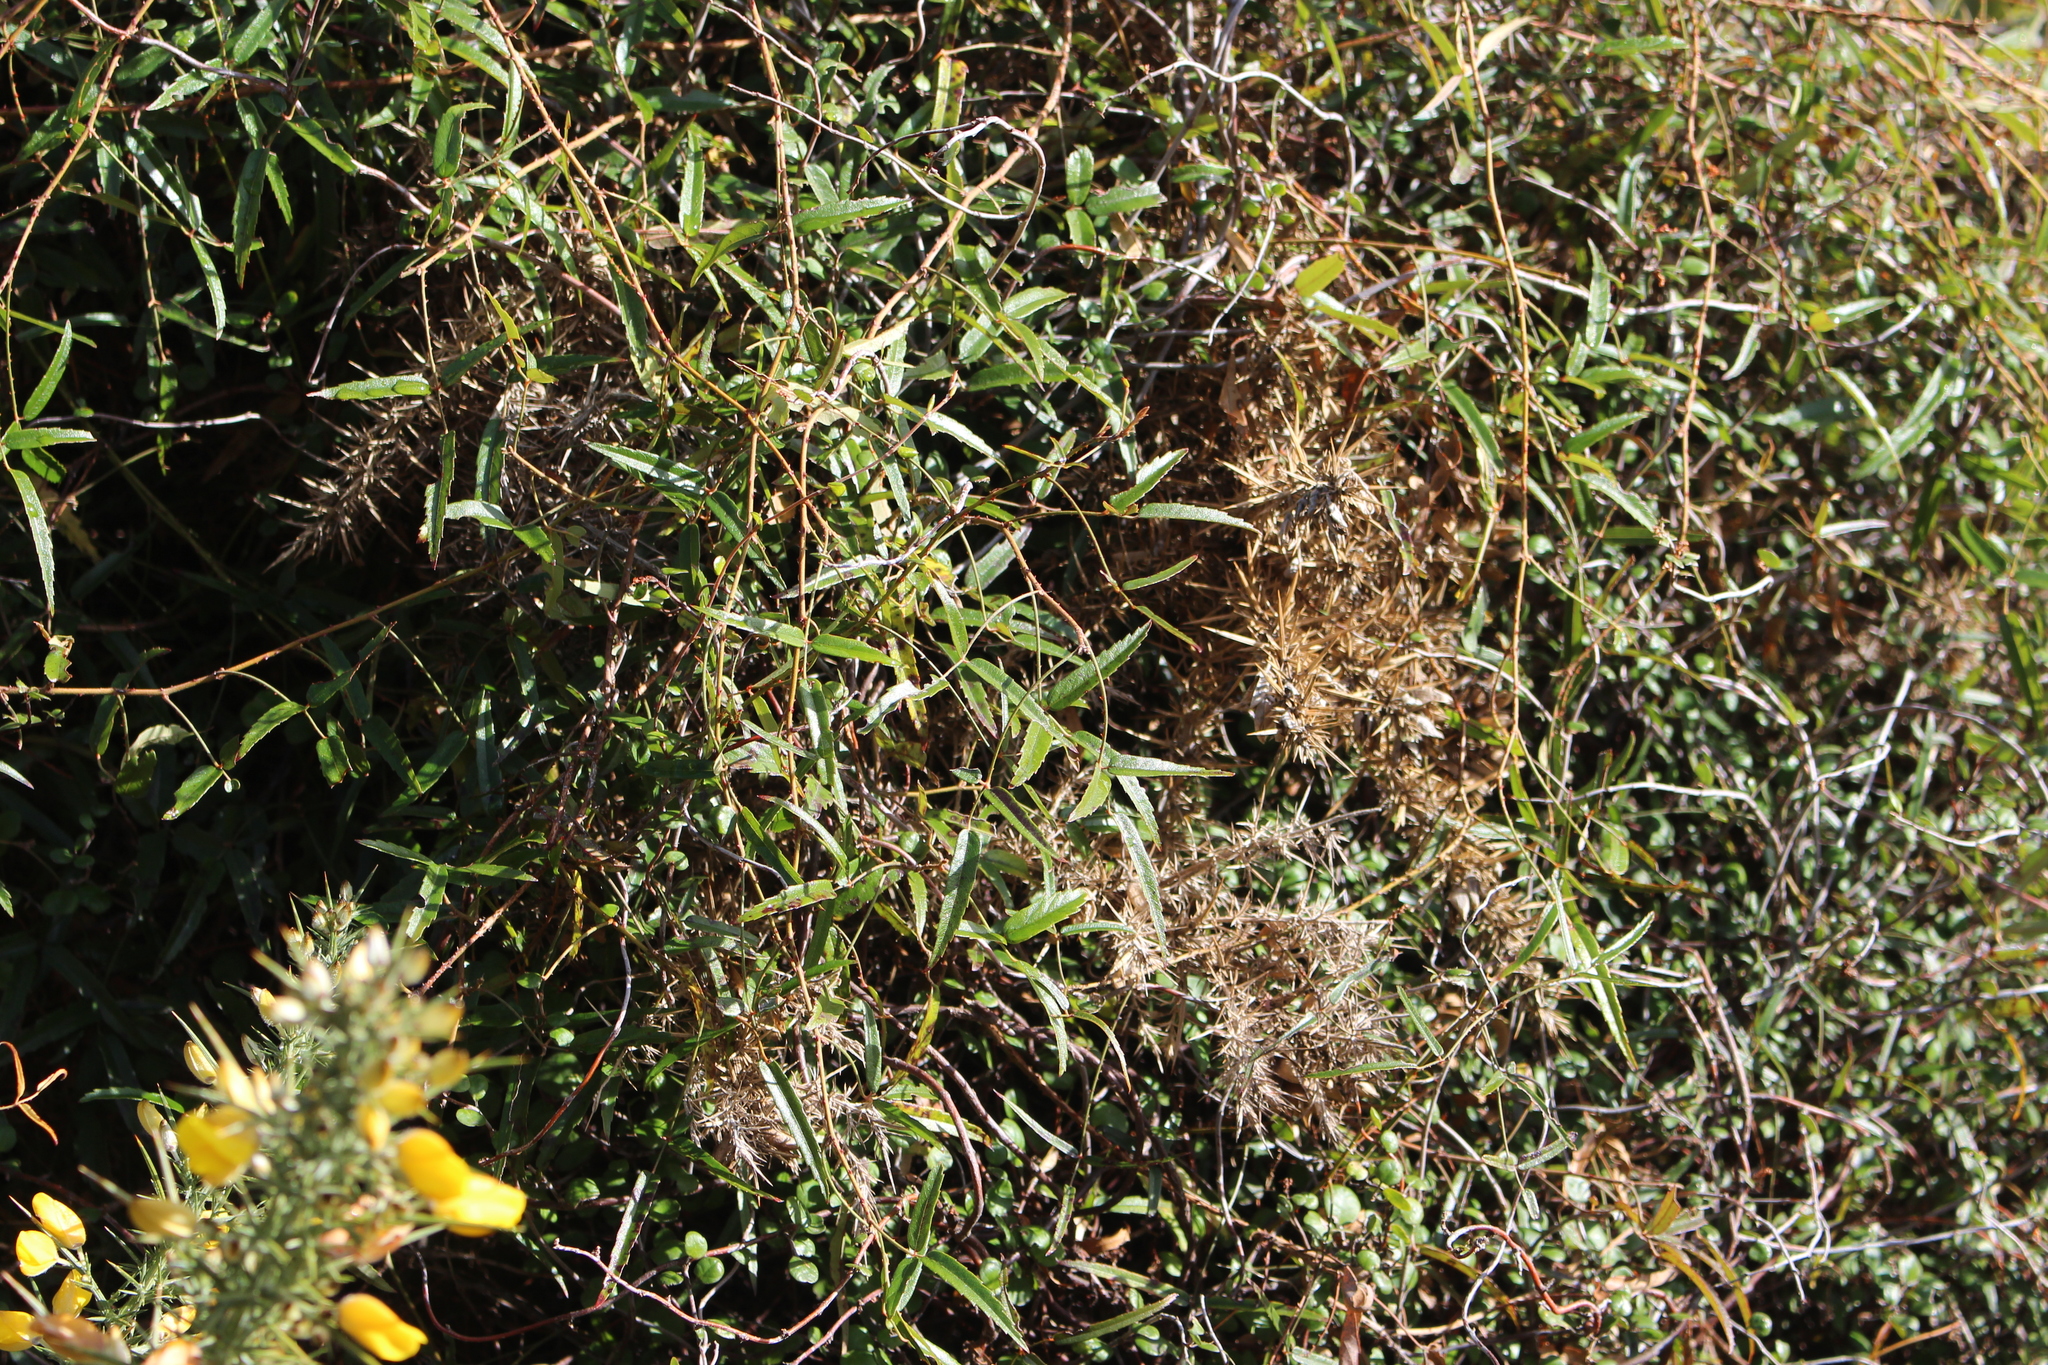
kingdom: Plantae
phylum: Tracheophyta
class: Magnoliopsida
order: Rosales
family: Rosaceae
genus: Rubus
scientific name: Rubus schmidelioides
